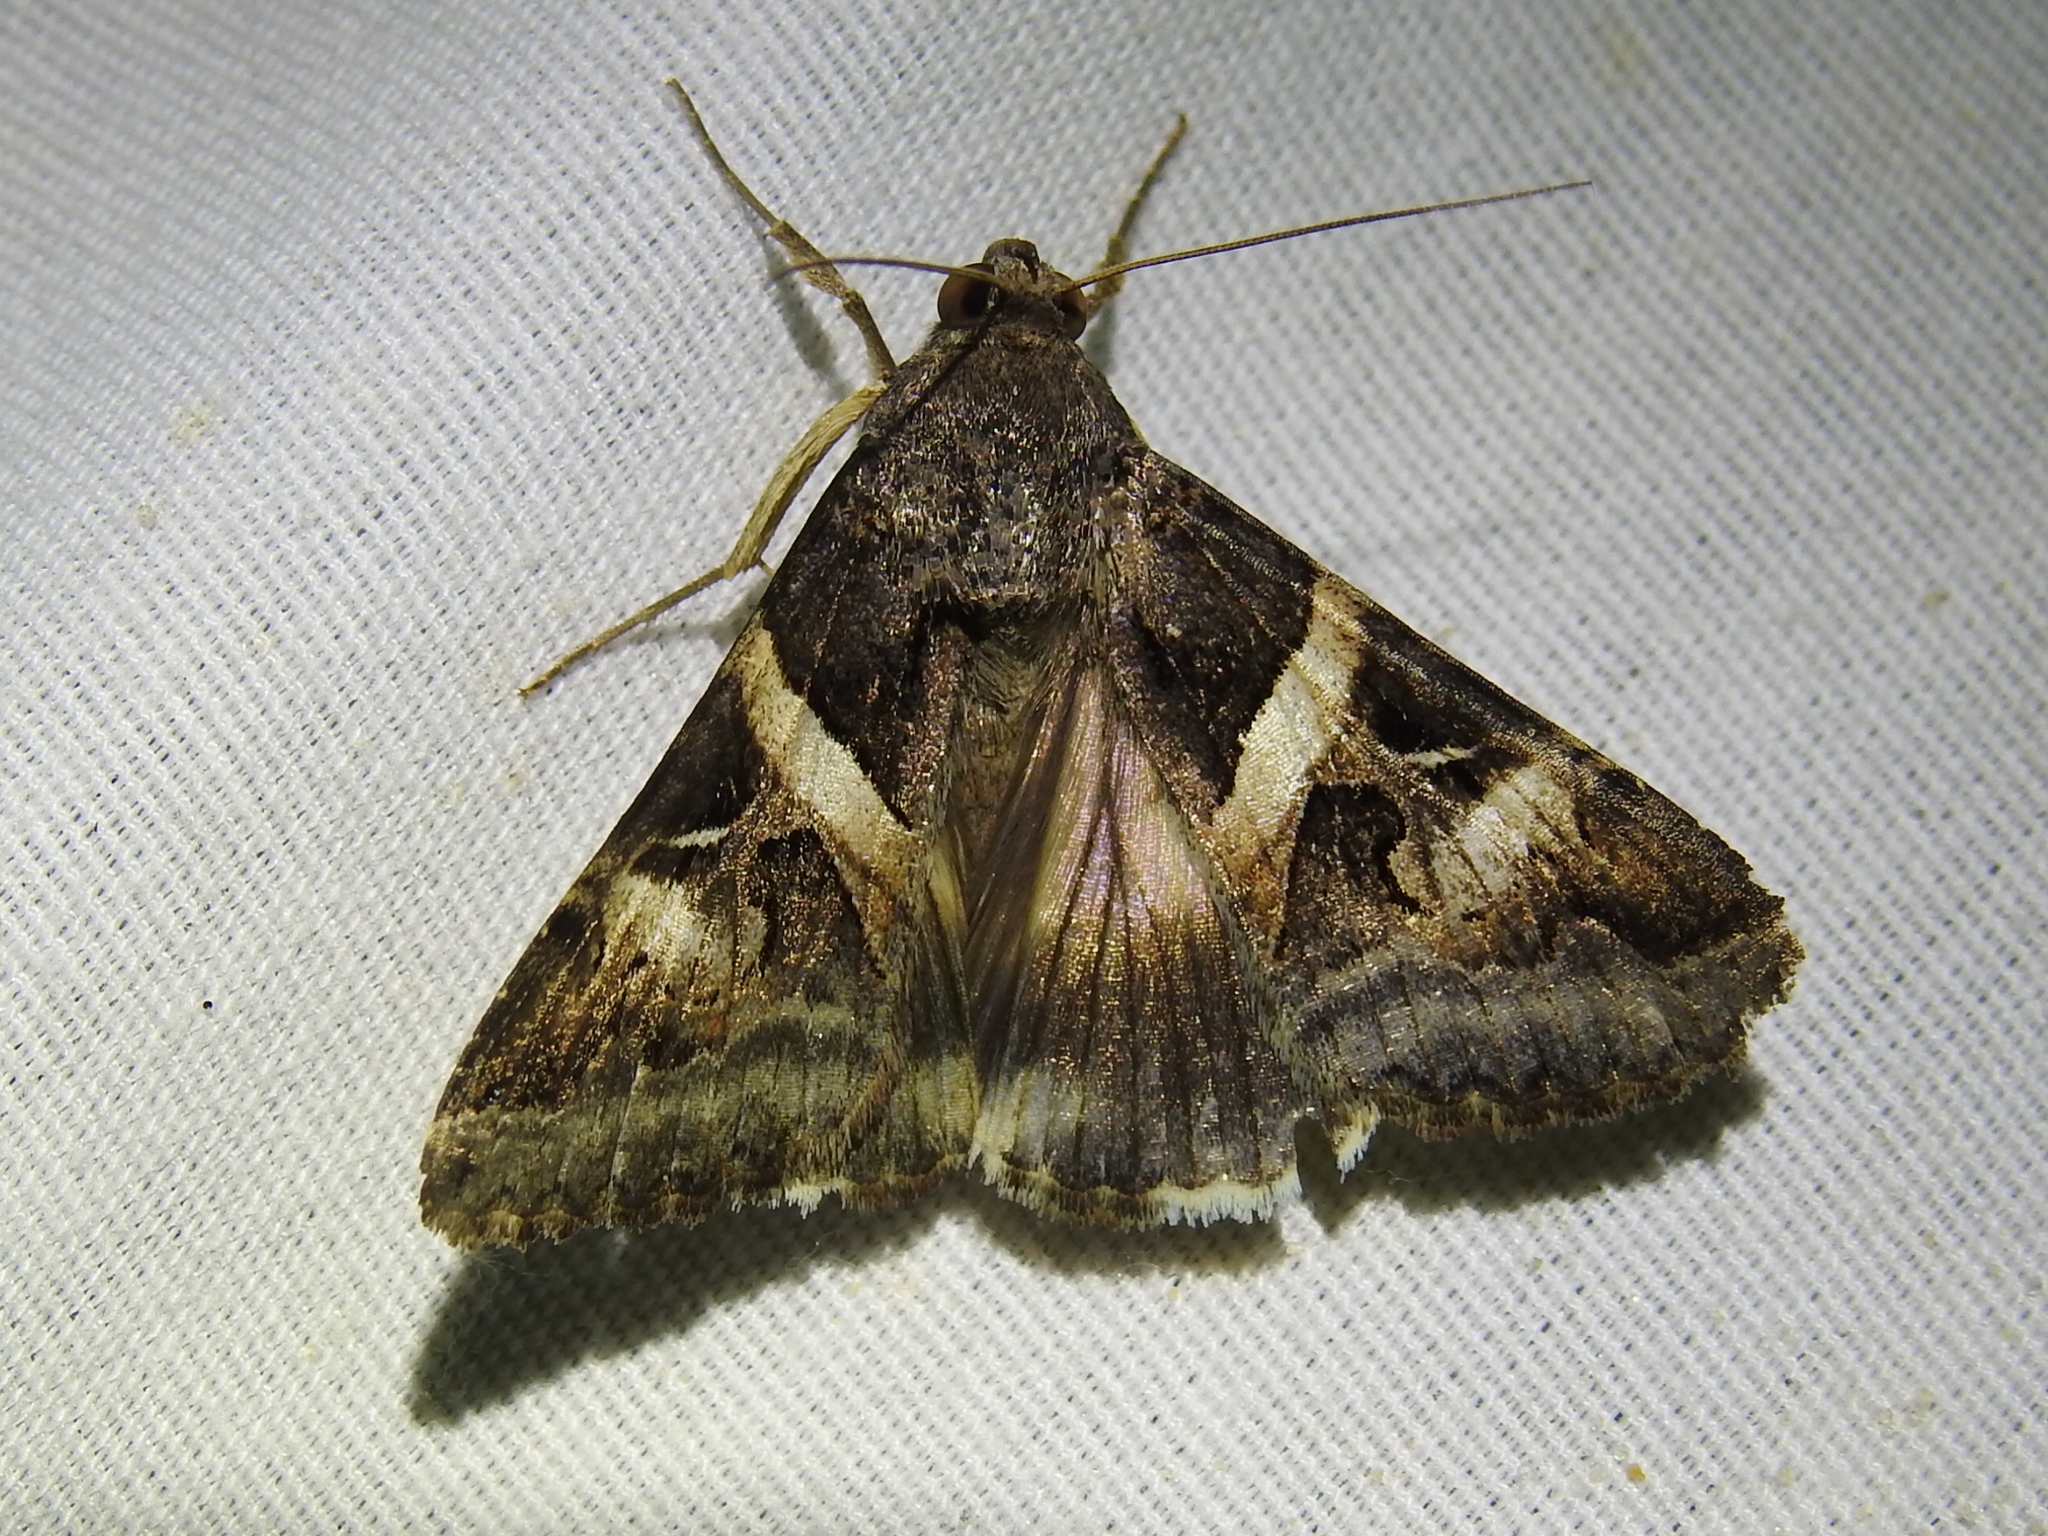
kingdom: Animalia
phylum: Arthropoda
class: Insecta
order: Lepidoptera
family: Erebidae
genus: Melipotis
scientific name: Melipotis indomita
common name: Moth
